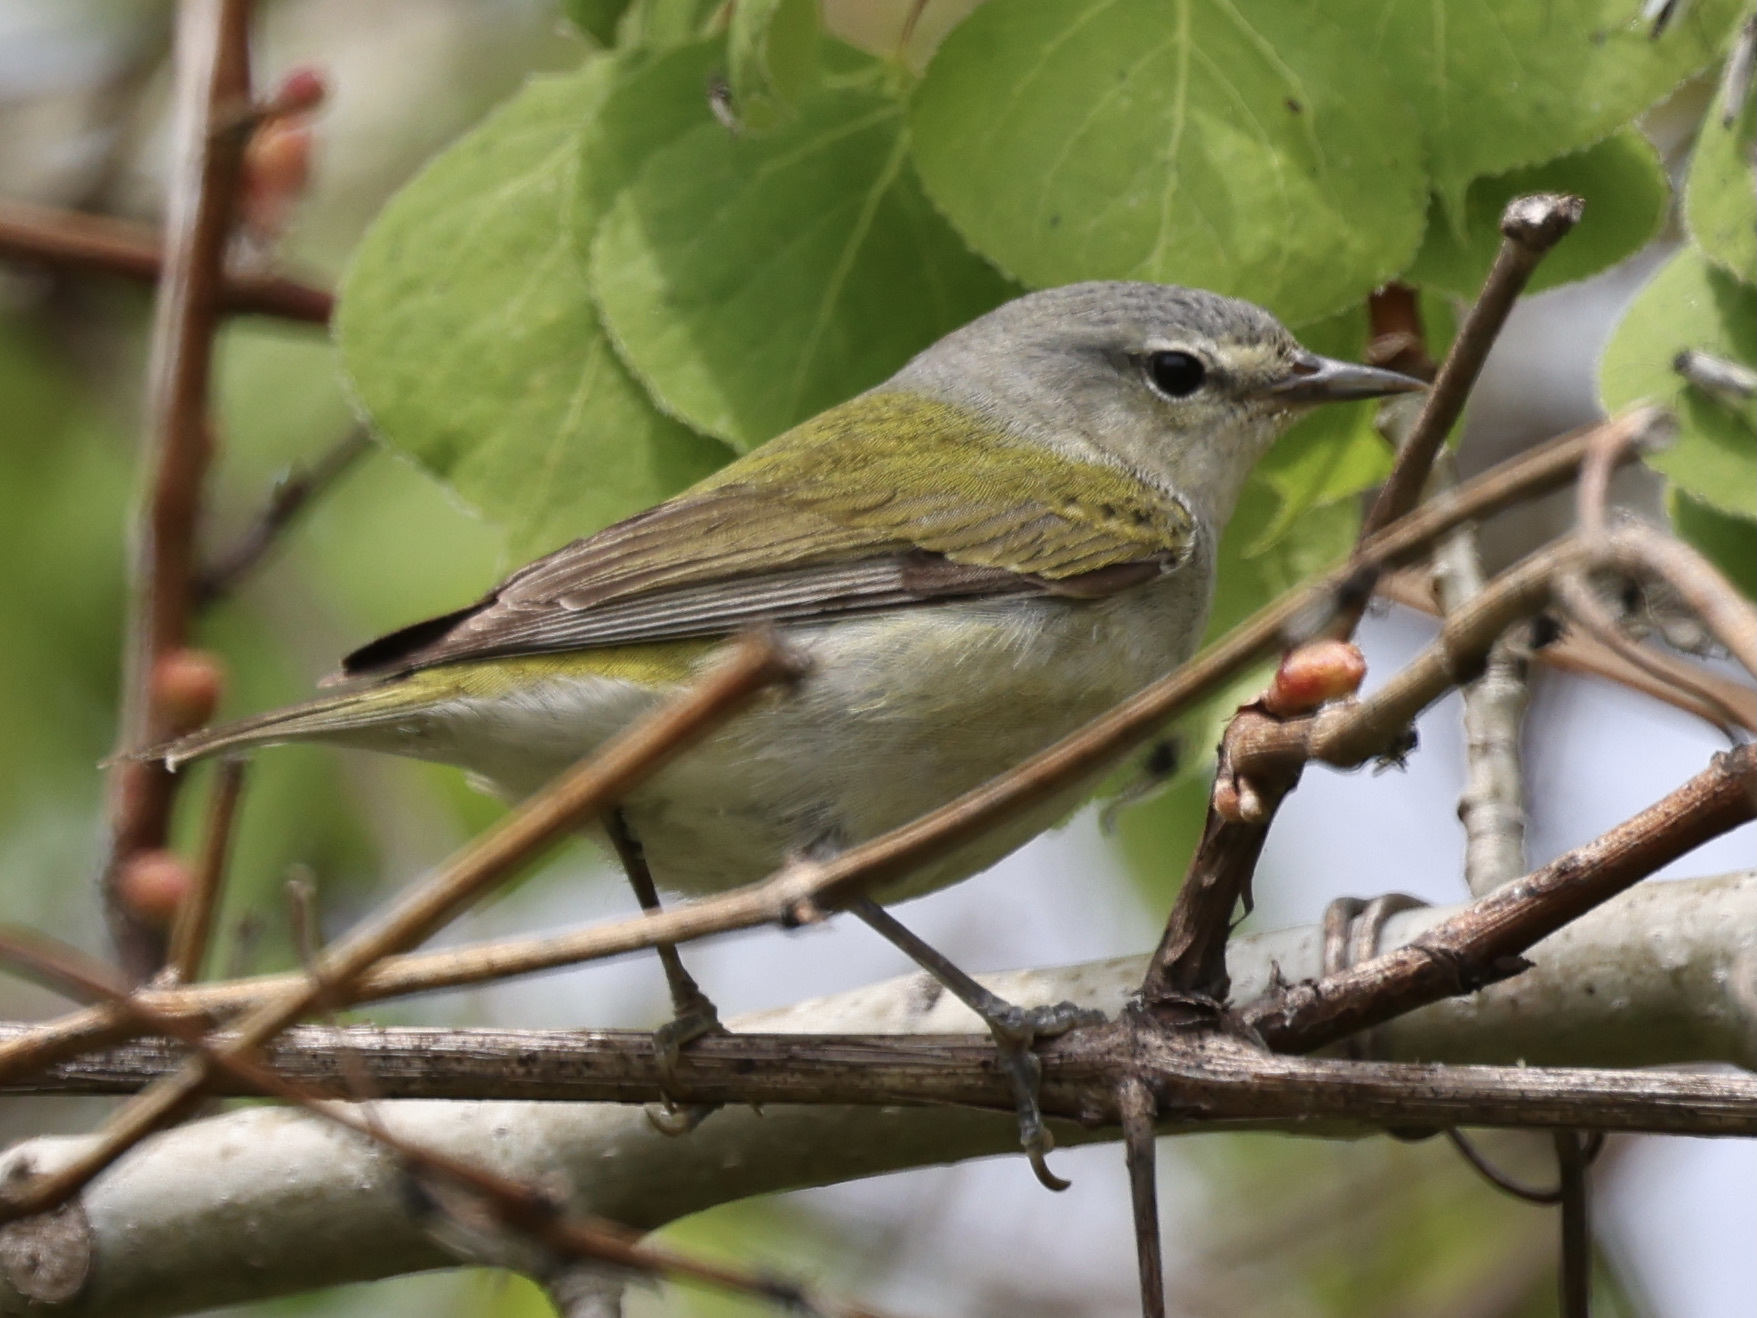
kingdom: Animalia
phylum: Chordata
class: Aves
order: Passeriformes
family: Parulidae
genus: Leiothlypis
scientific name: Leiothlypis peregrina
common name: Tennessee warbler
